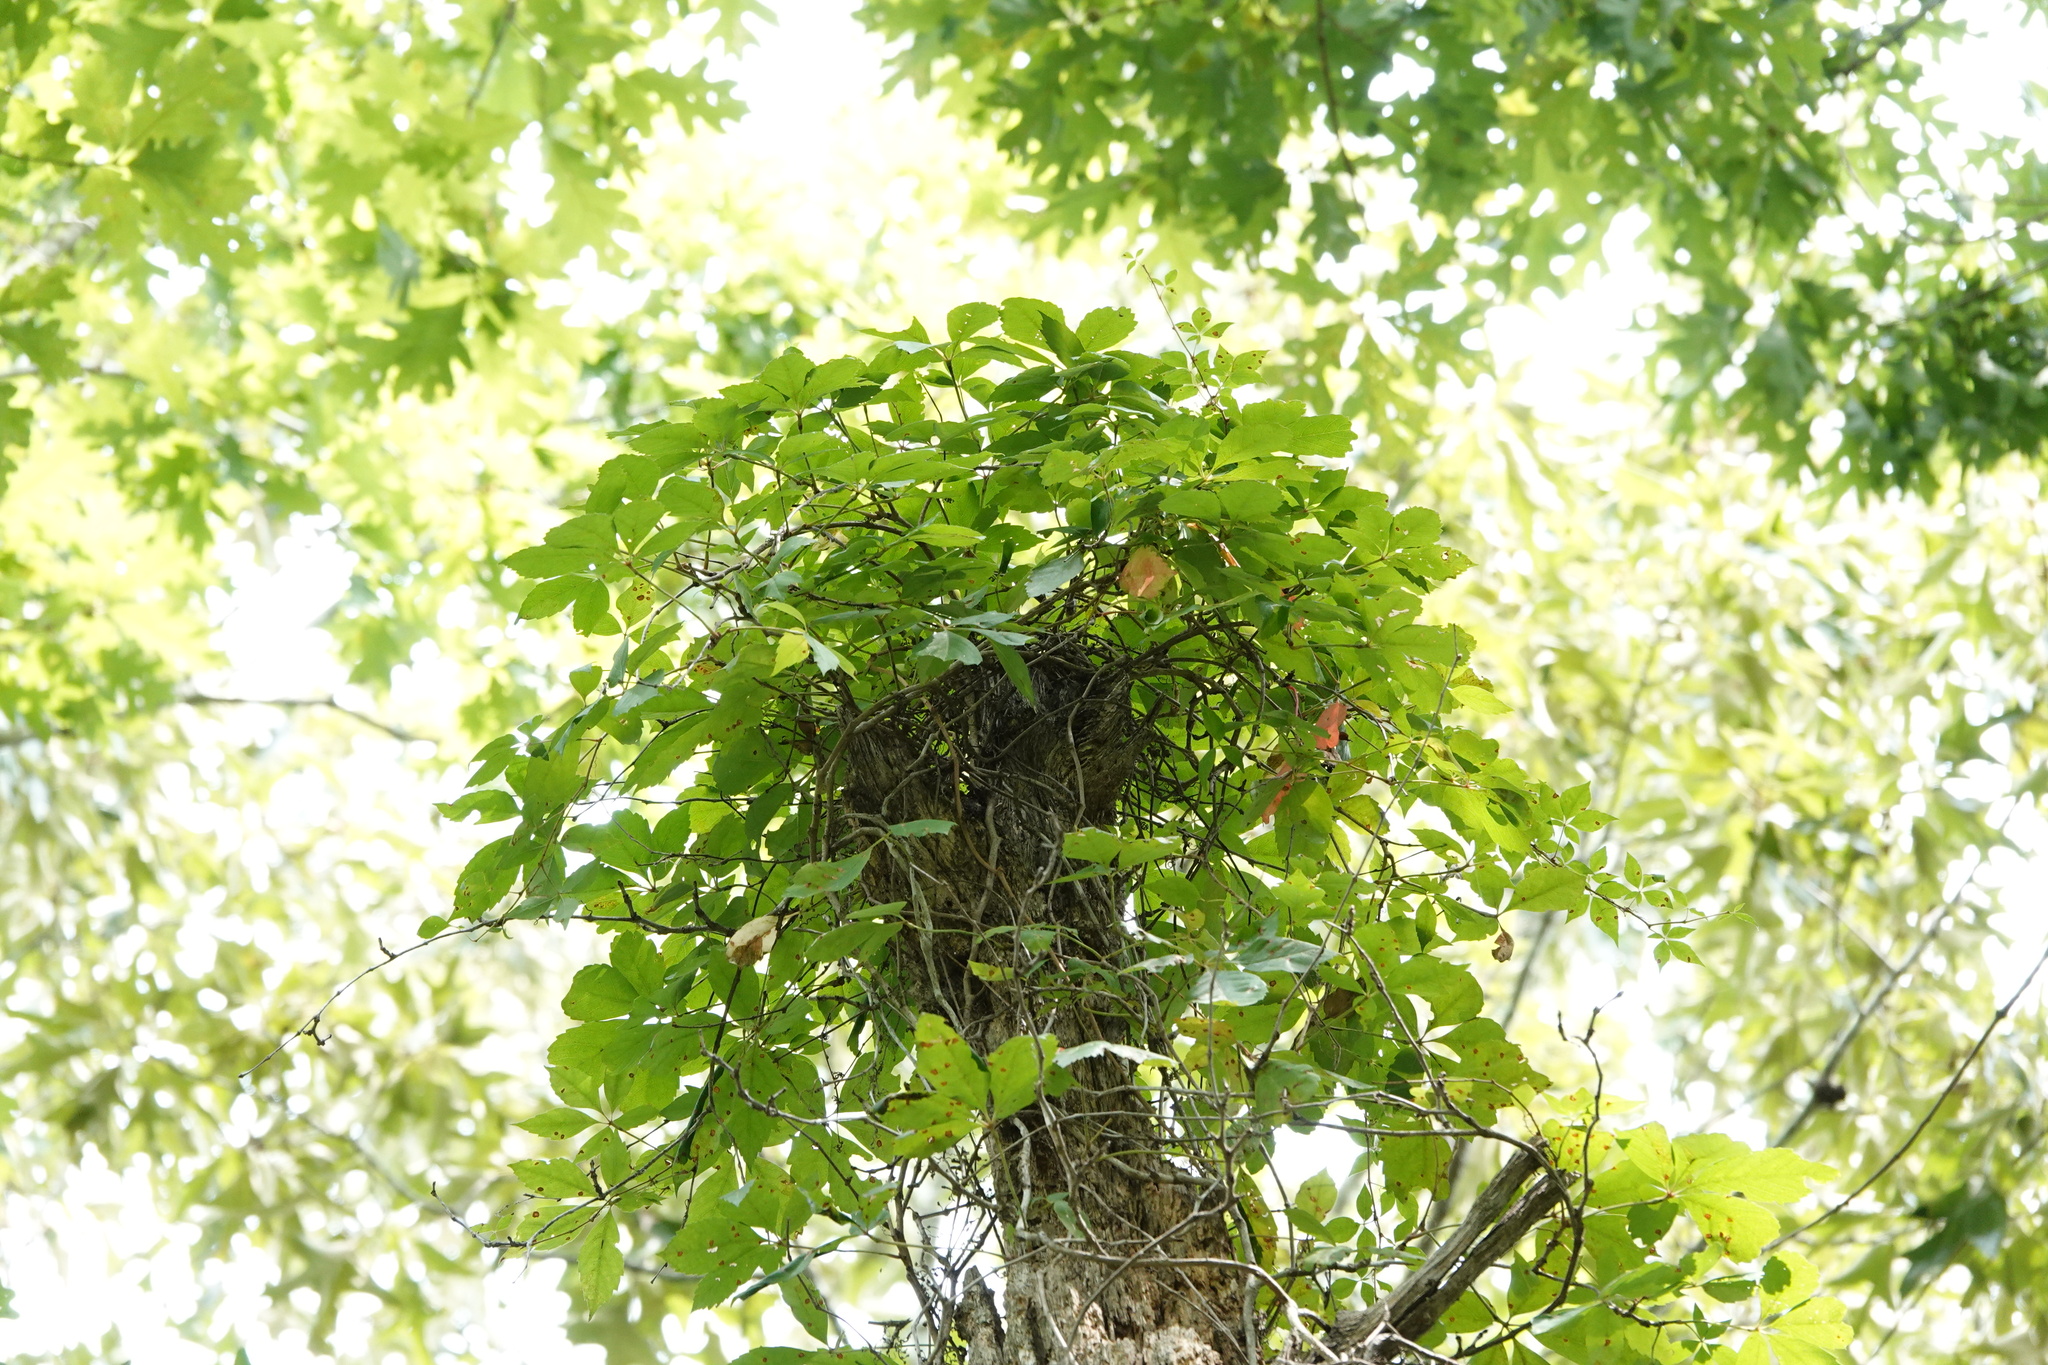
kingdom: Plantae
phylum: Tracheophyta
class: Magnoliopsida
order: Vitales
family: Vitaceae
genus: Parthenocissus
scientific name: Parthenocissus quinquefolia
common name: Virginia-creeper
